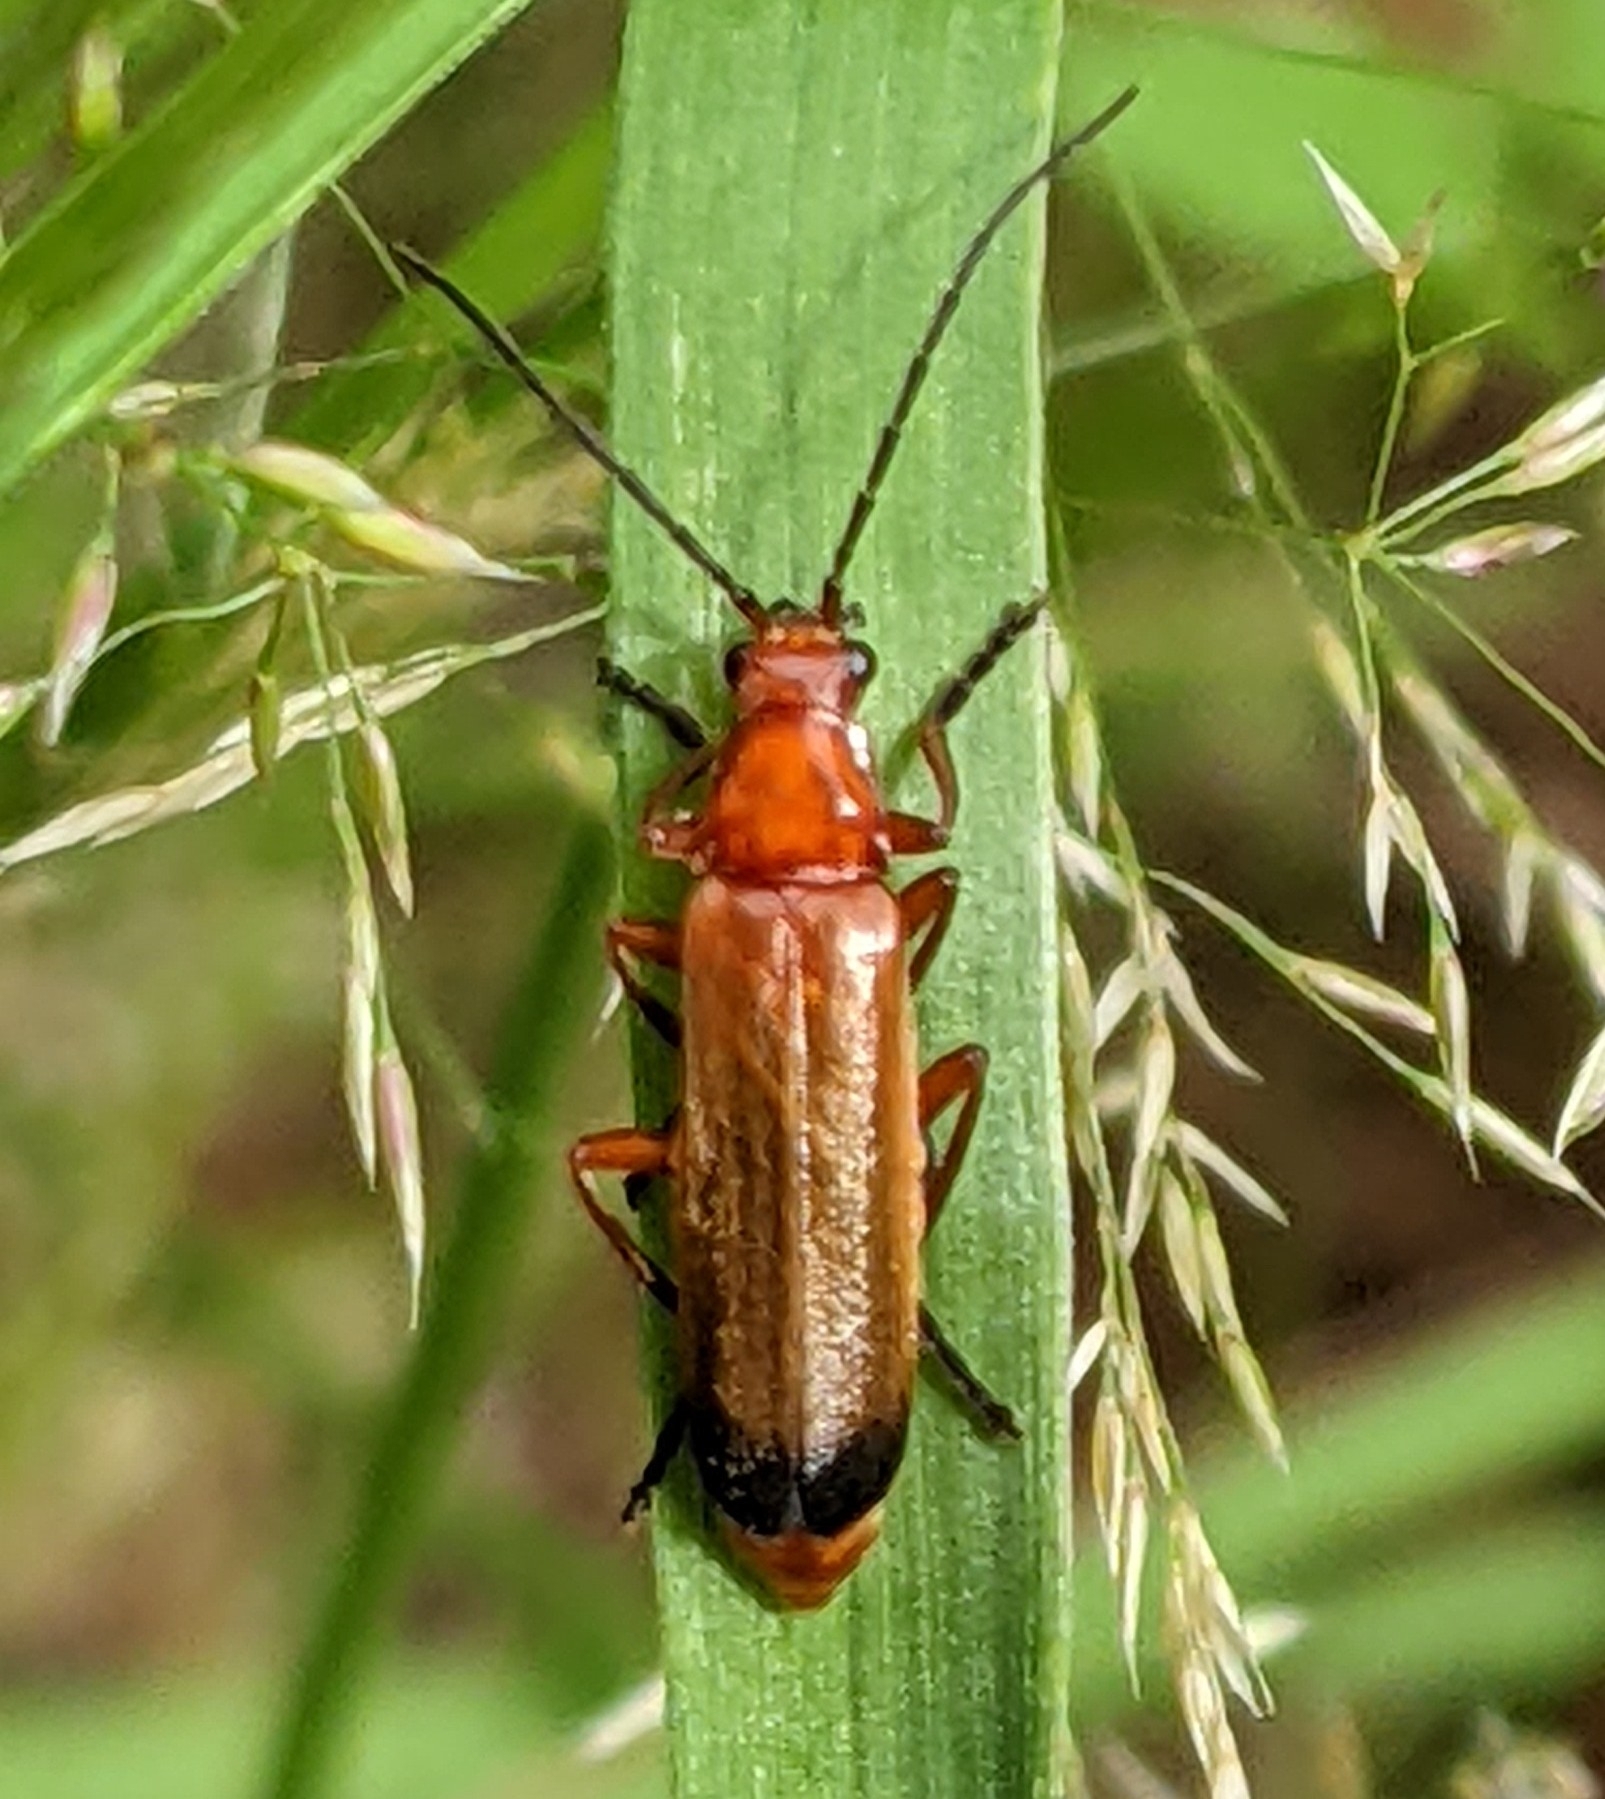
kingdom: Animalia
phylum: Arthropoda
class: Insecta
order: Coleoptera
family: Cantharidae
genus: Rhagonycha
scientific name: Rhagonycha fulva
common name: Common red soldier beetle
